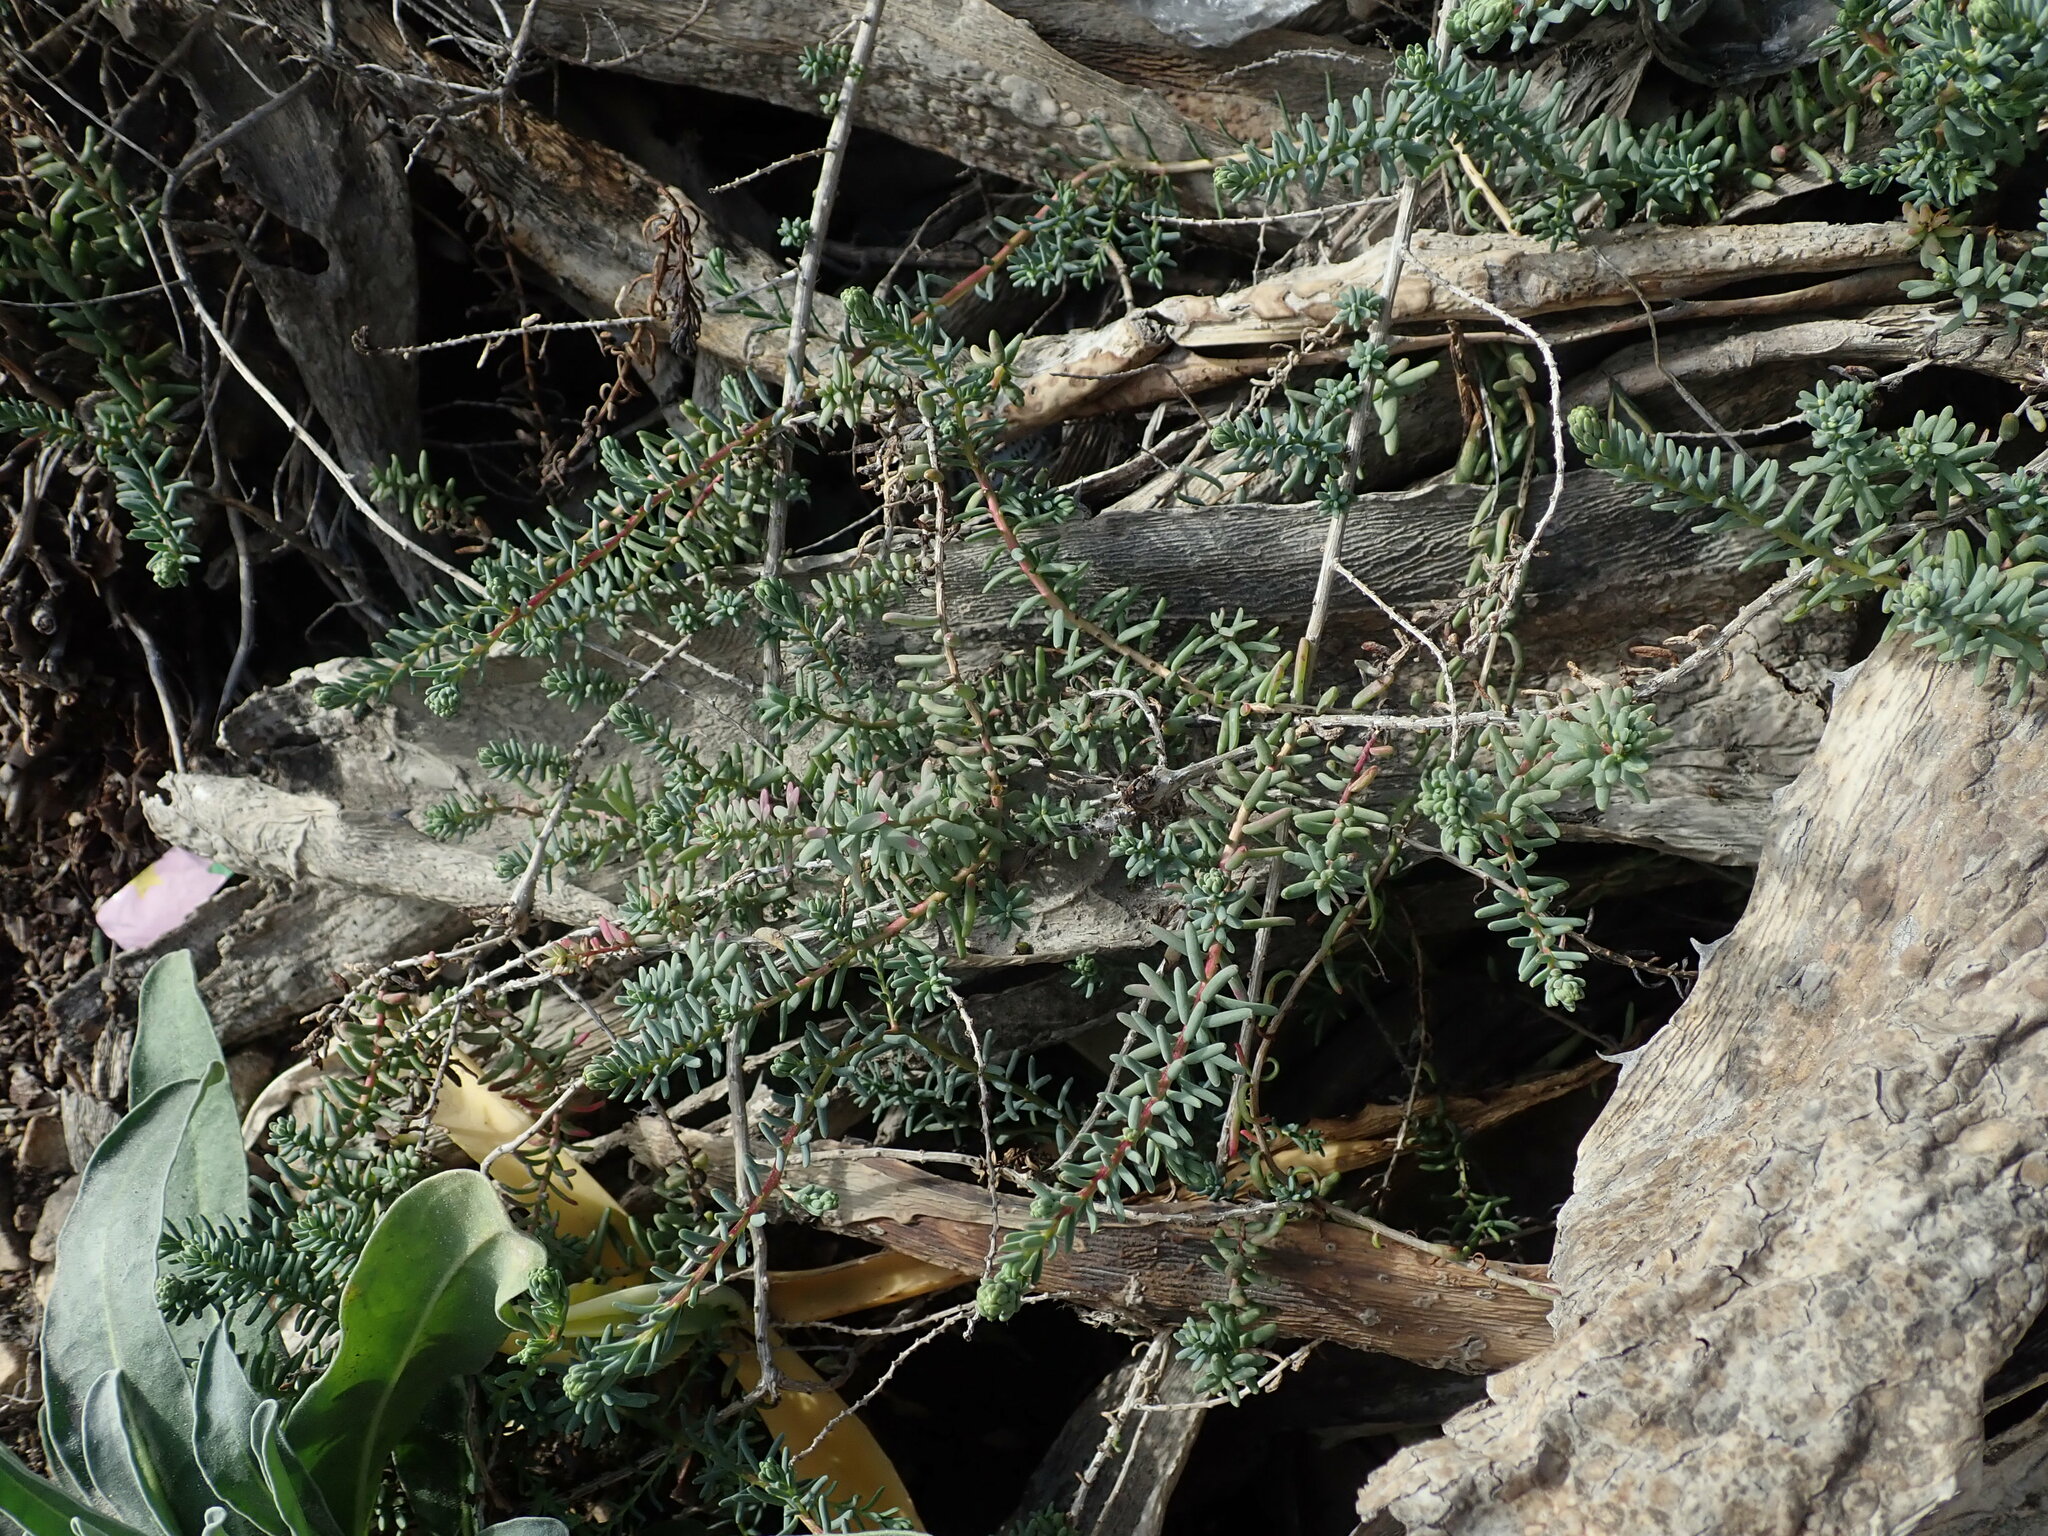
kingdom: Plantae
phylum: Tracheophyta
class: Magnoliopsida
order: Caryophyllales
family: Amaranthaceae
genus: Suaeda
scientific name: Suaeda vera
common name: Shrubby sea-blite
